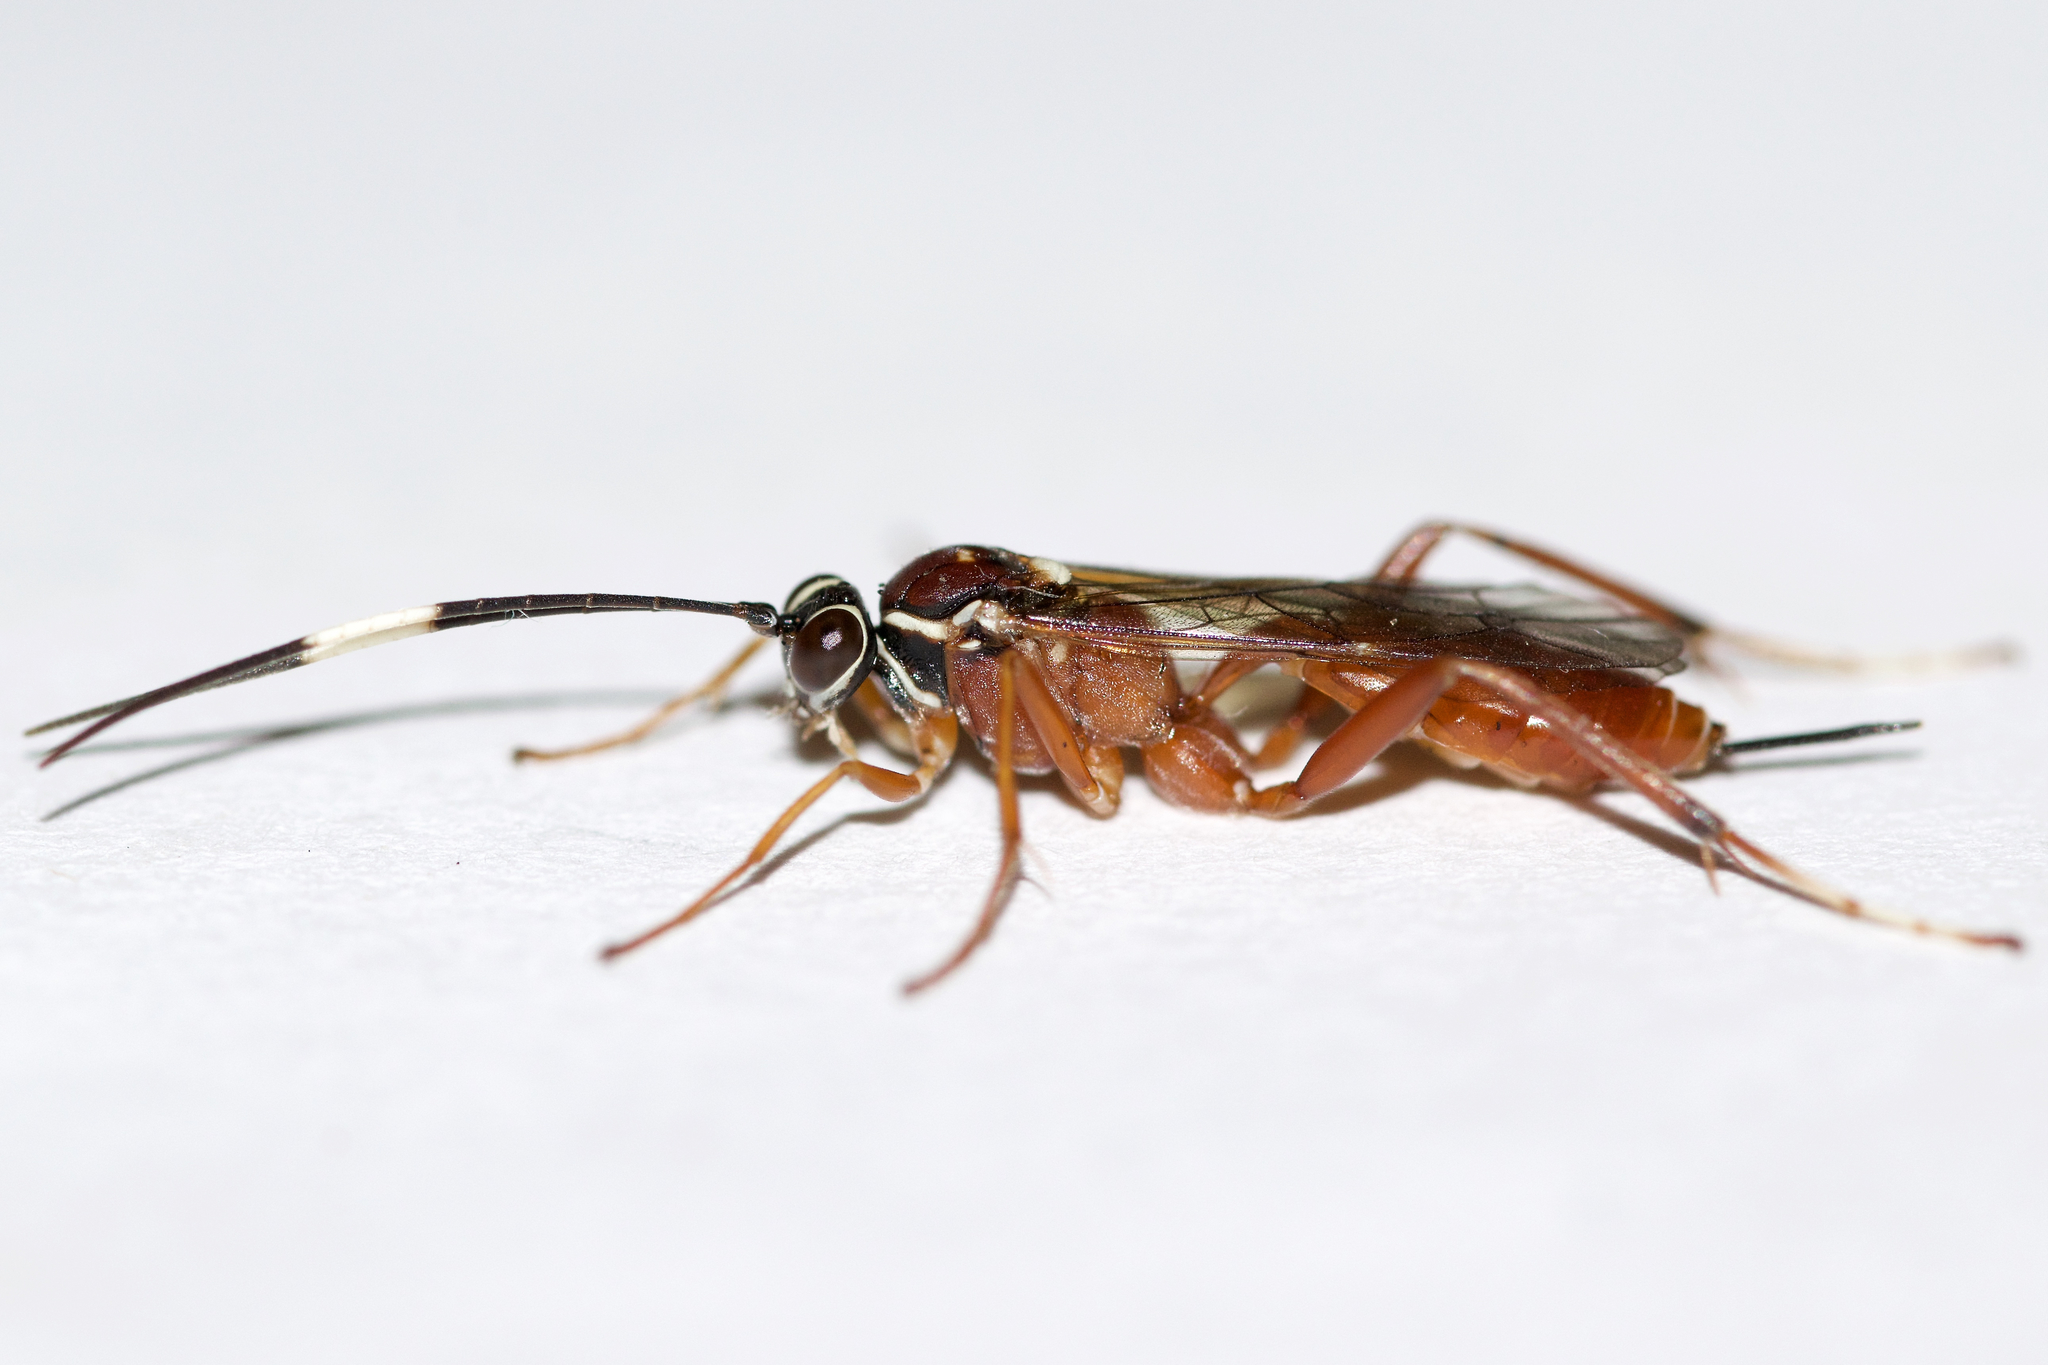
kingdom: Animalia
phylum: Arthropoda
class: Insecta
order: Hymenoptera
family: Ichneumonidae
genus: Ischnus
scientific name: Ischnus inquisitorius
